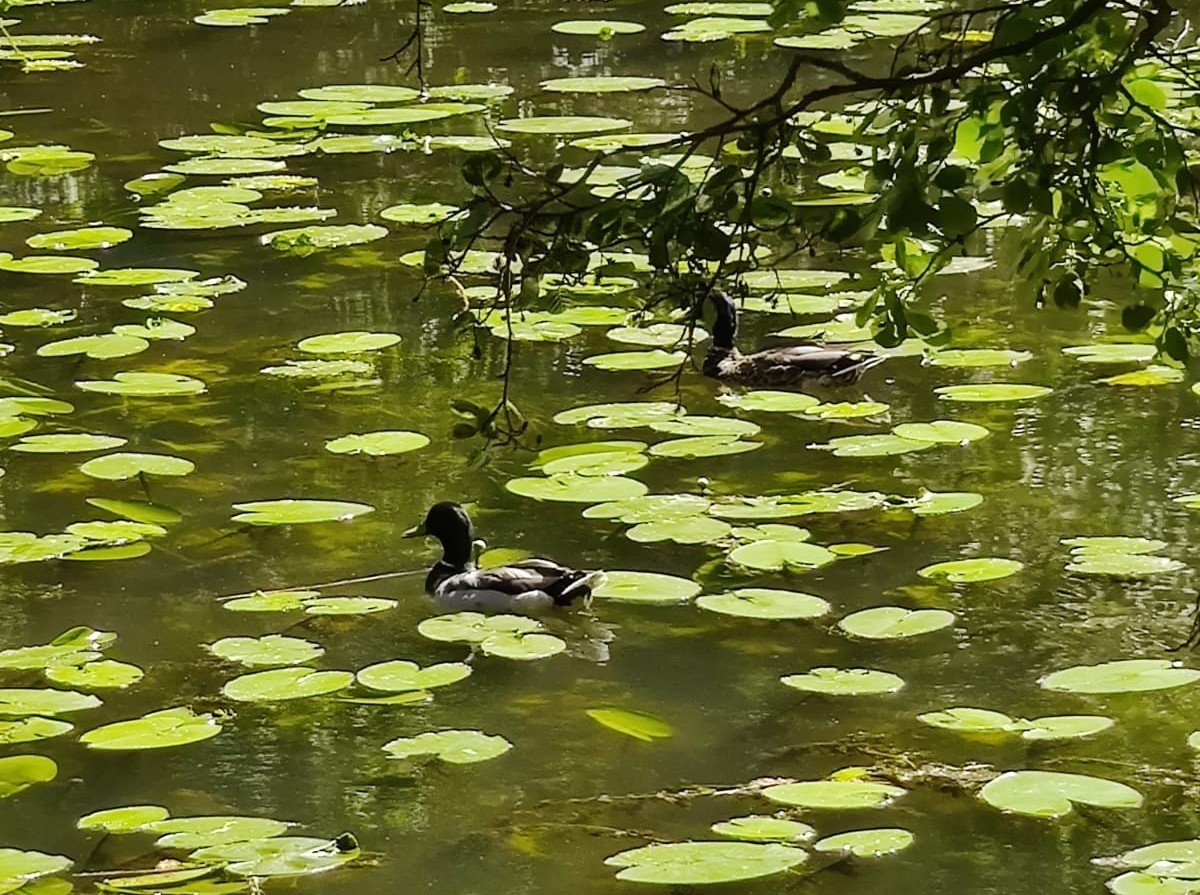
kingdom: Animalia
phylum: Chordata
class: Aves
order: Anseriformes
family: Anatidae
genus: Anas
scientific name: Anas platyrhynchos
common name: Mallard
